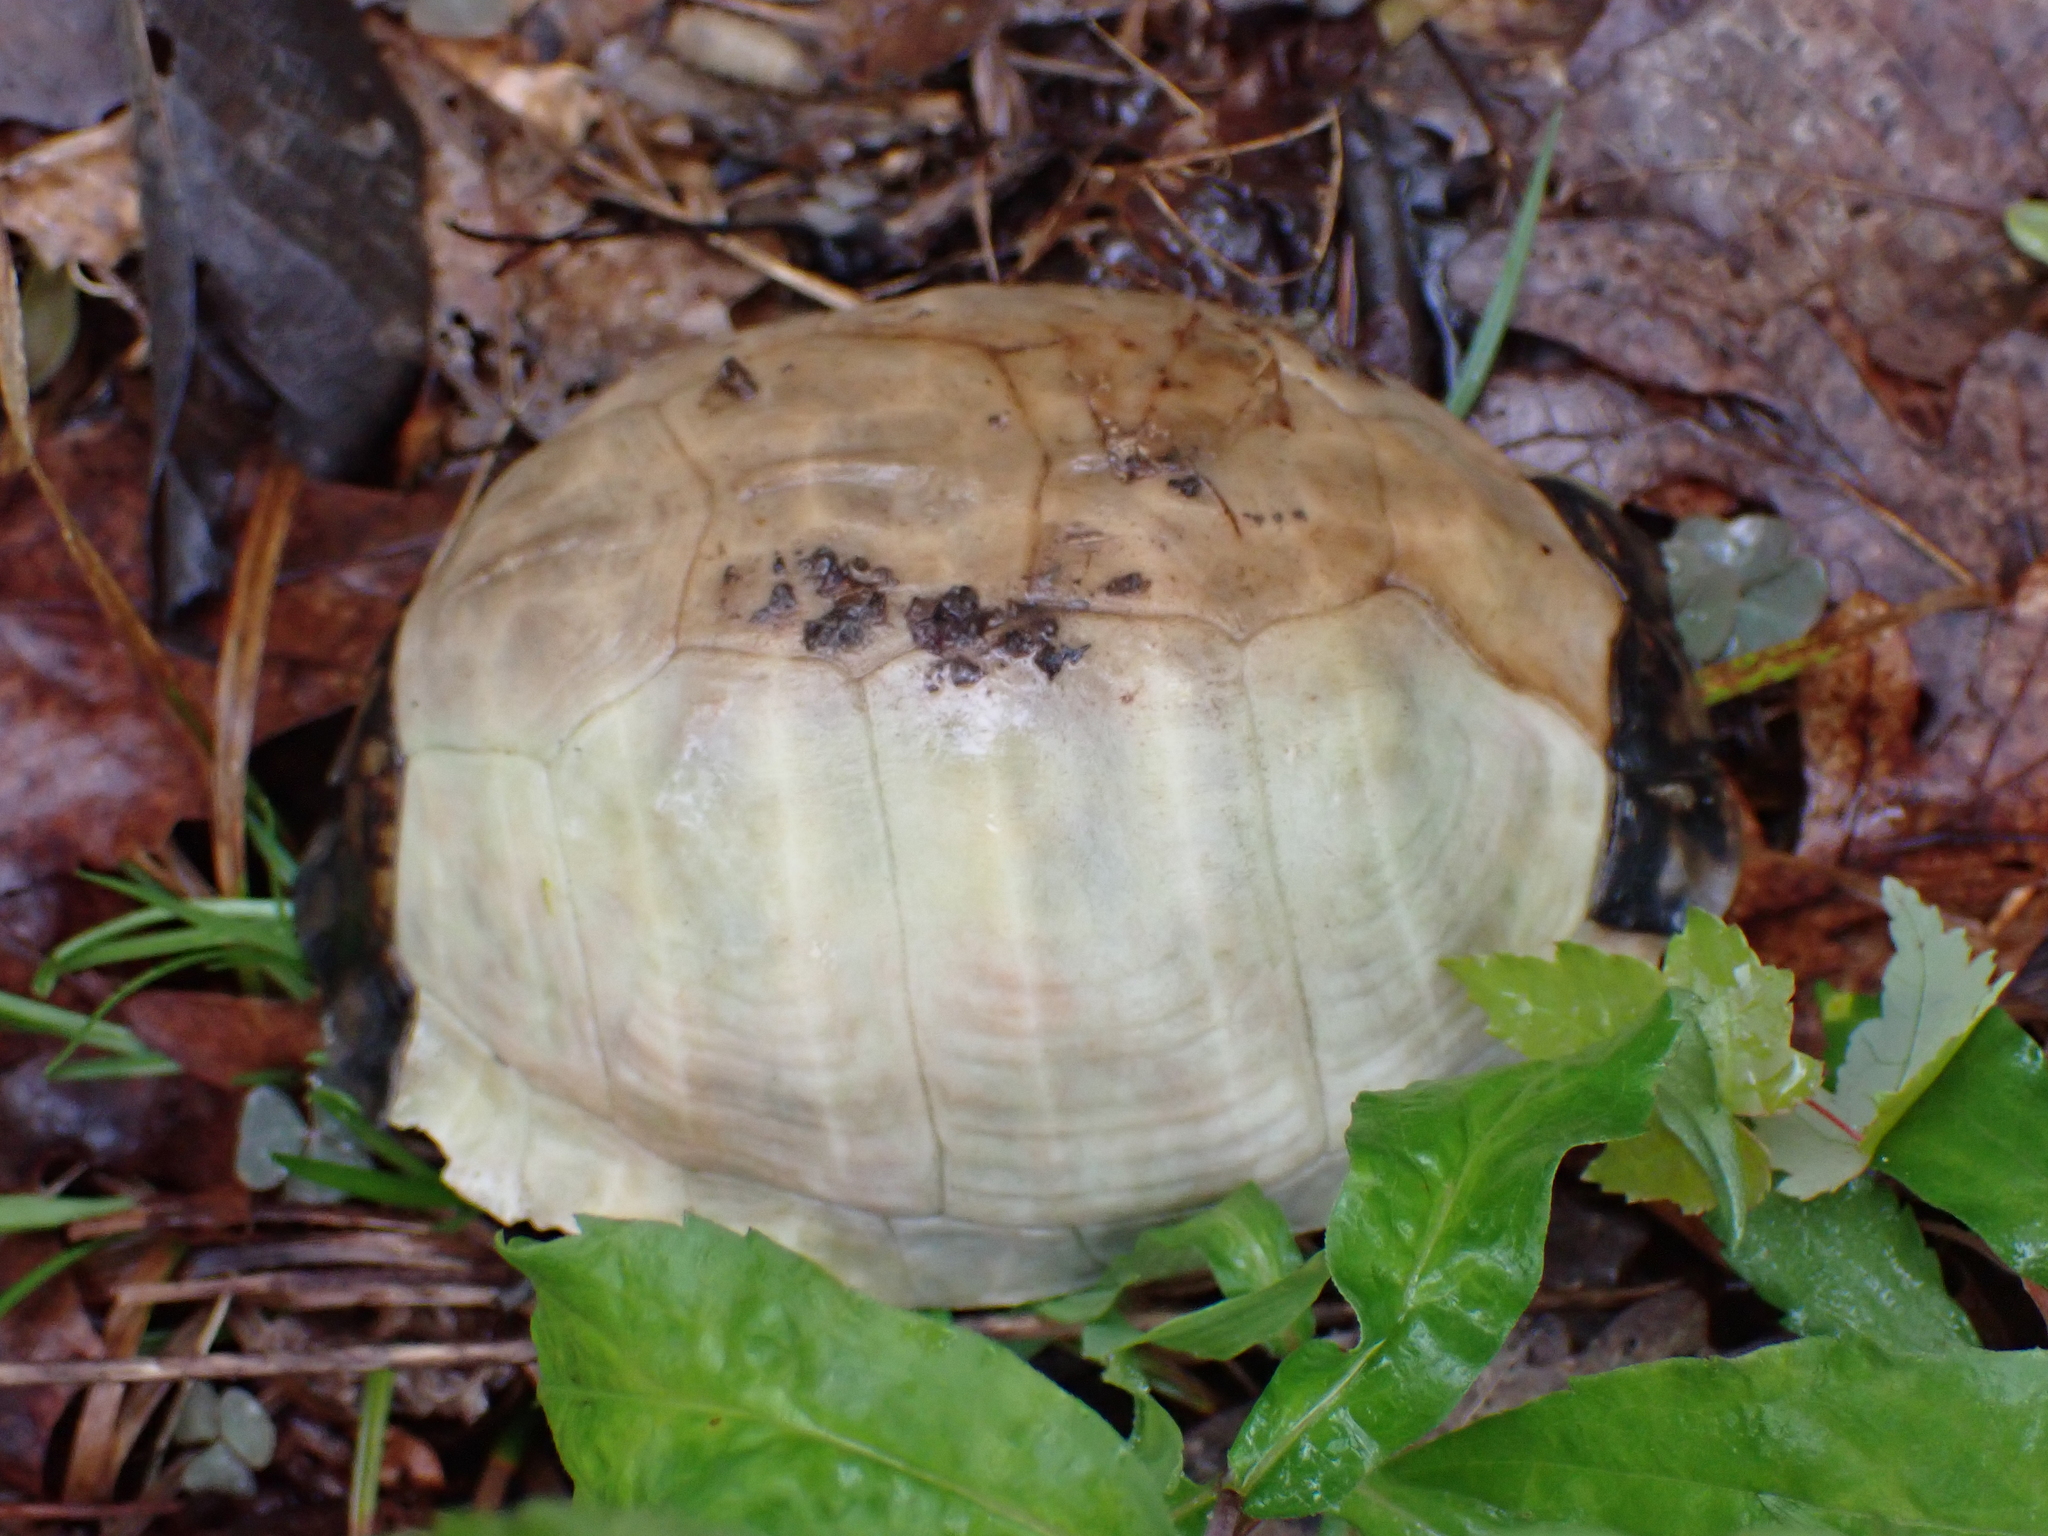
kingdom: Animalia
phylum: Chordata
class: Testudines
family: Emydidae
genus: Terrapene
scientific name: Terrapene carolina
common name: Common box turtle
